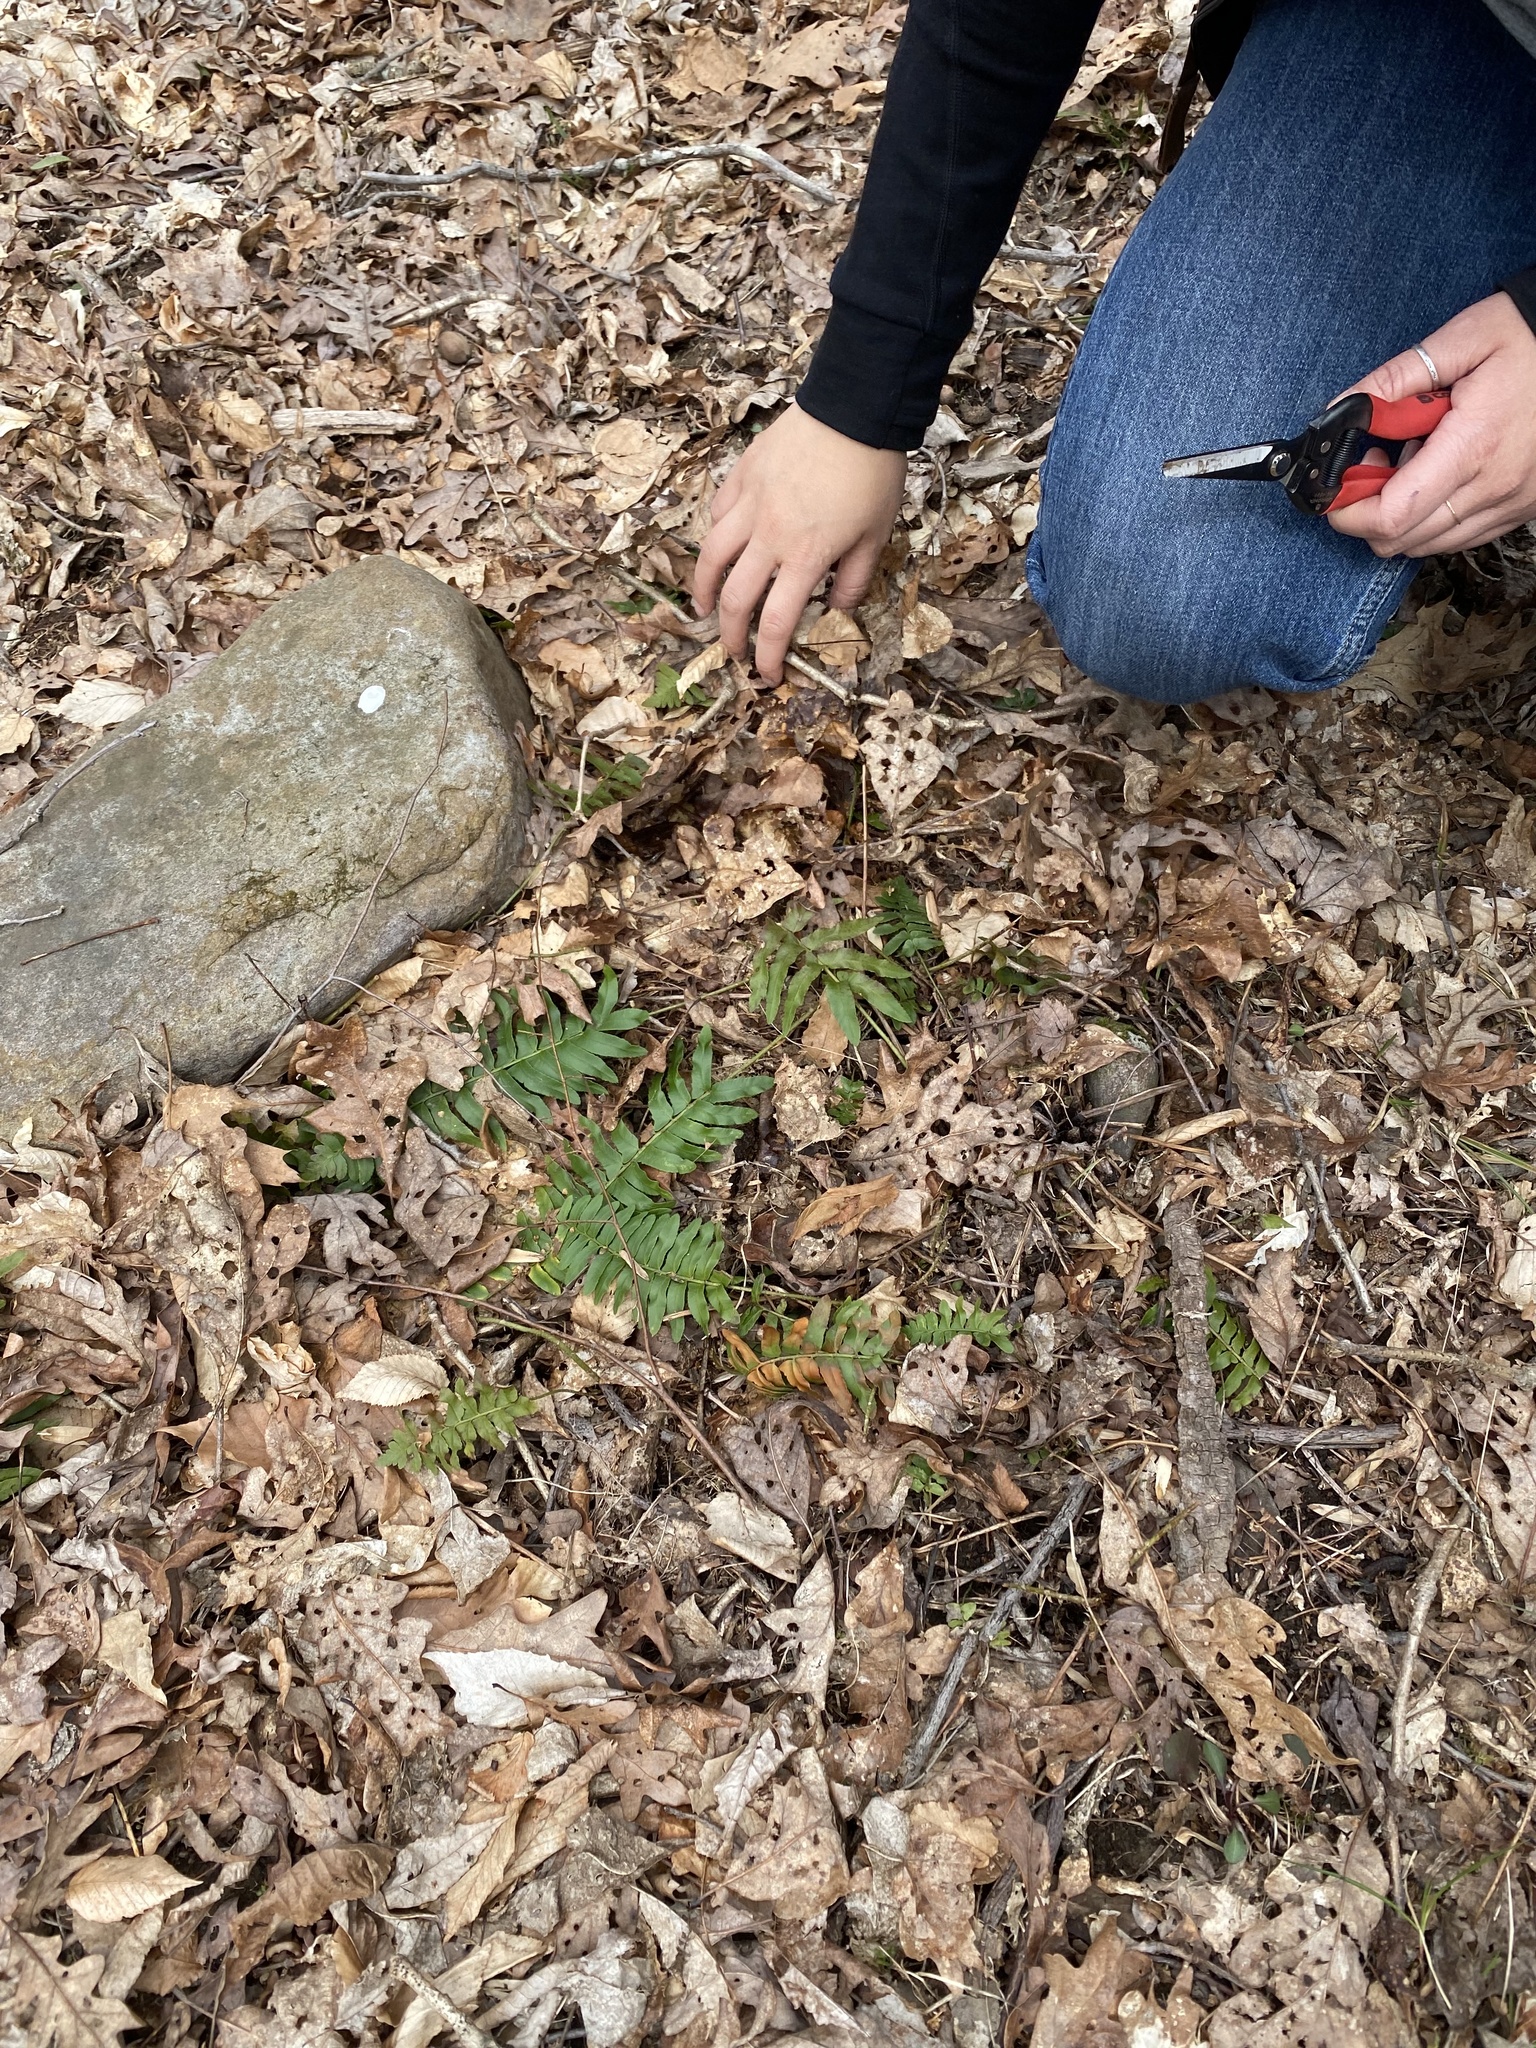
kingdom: Plantae
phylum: Tracheophyta
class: Polypodiopsida
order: Polypodiales
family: Dryopteridaceae
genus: Polystichum
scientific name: Polystichum acrostichoides
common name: Christmas fern
